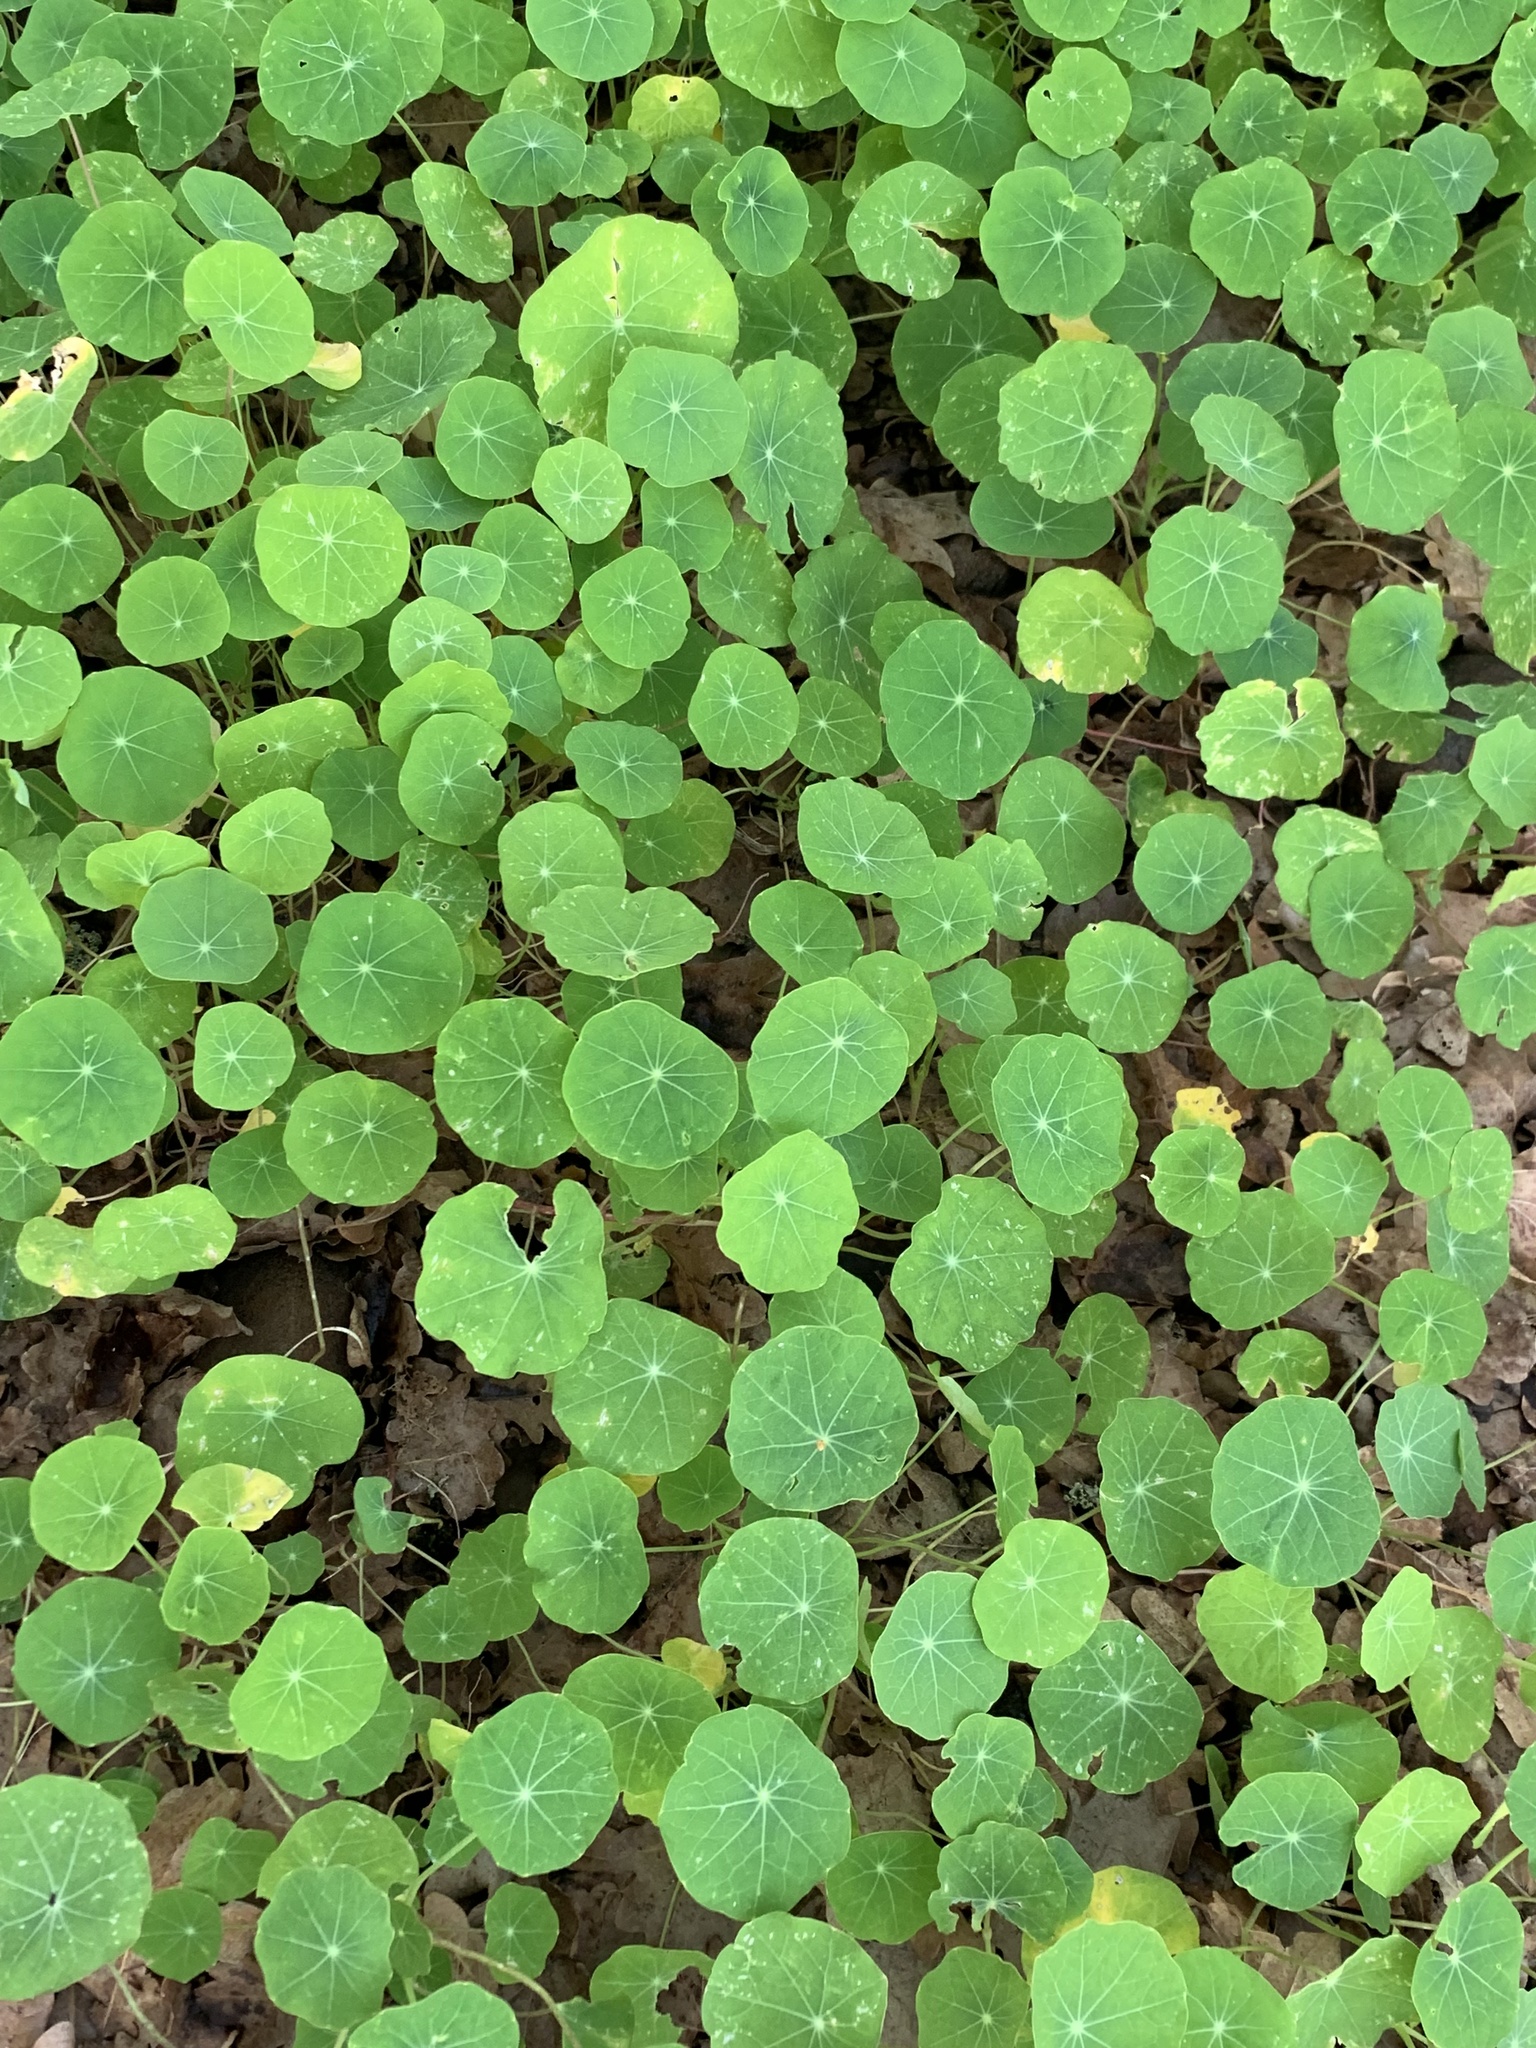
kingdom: Plantae
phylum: Tracheophyta
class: Magnoliopsida
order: Brassicales
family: Tropaeolaceae
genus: Tropaeolum
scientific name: Tropaeolum majus
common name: Nasturtium
